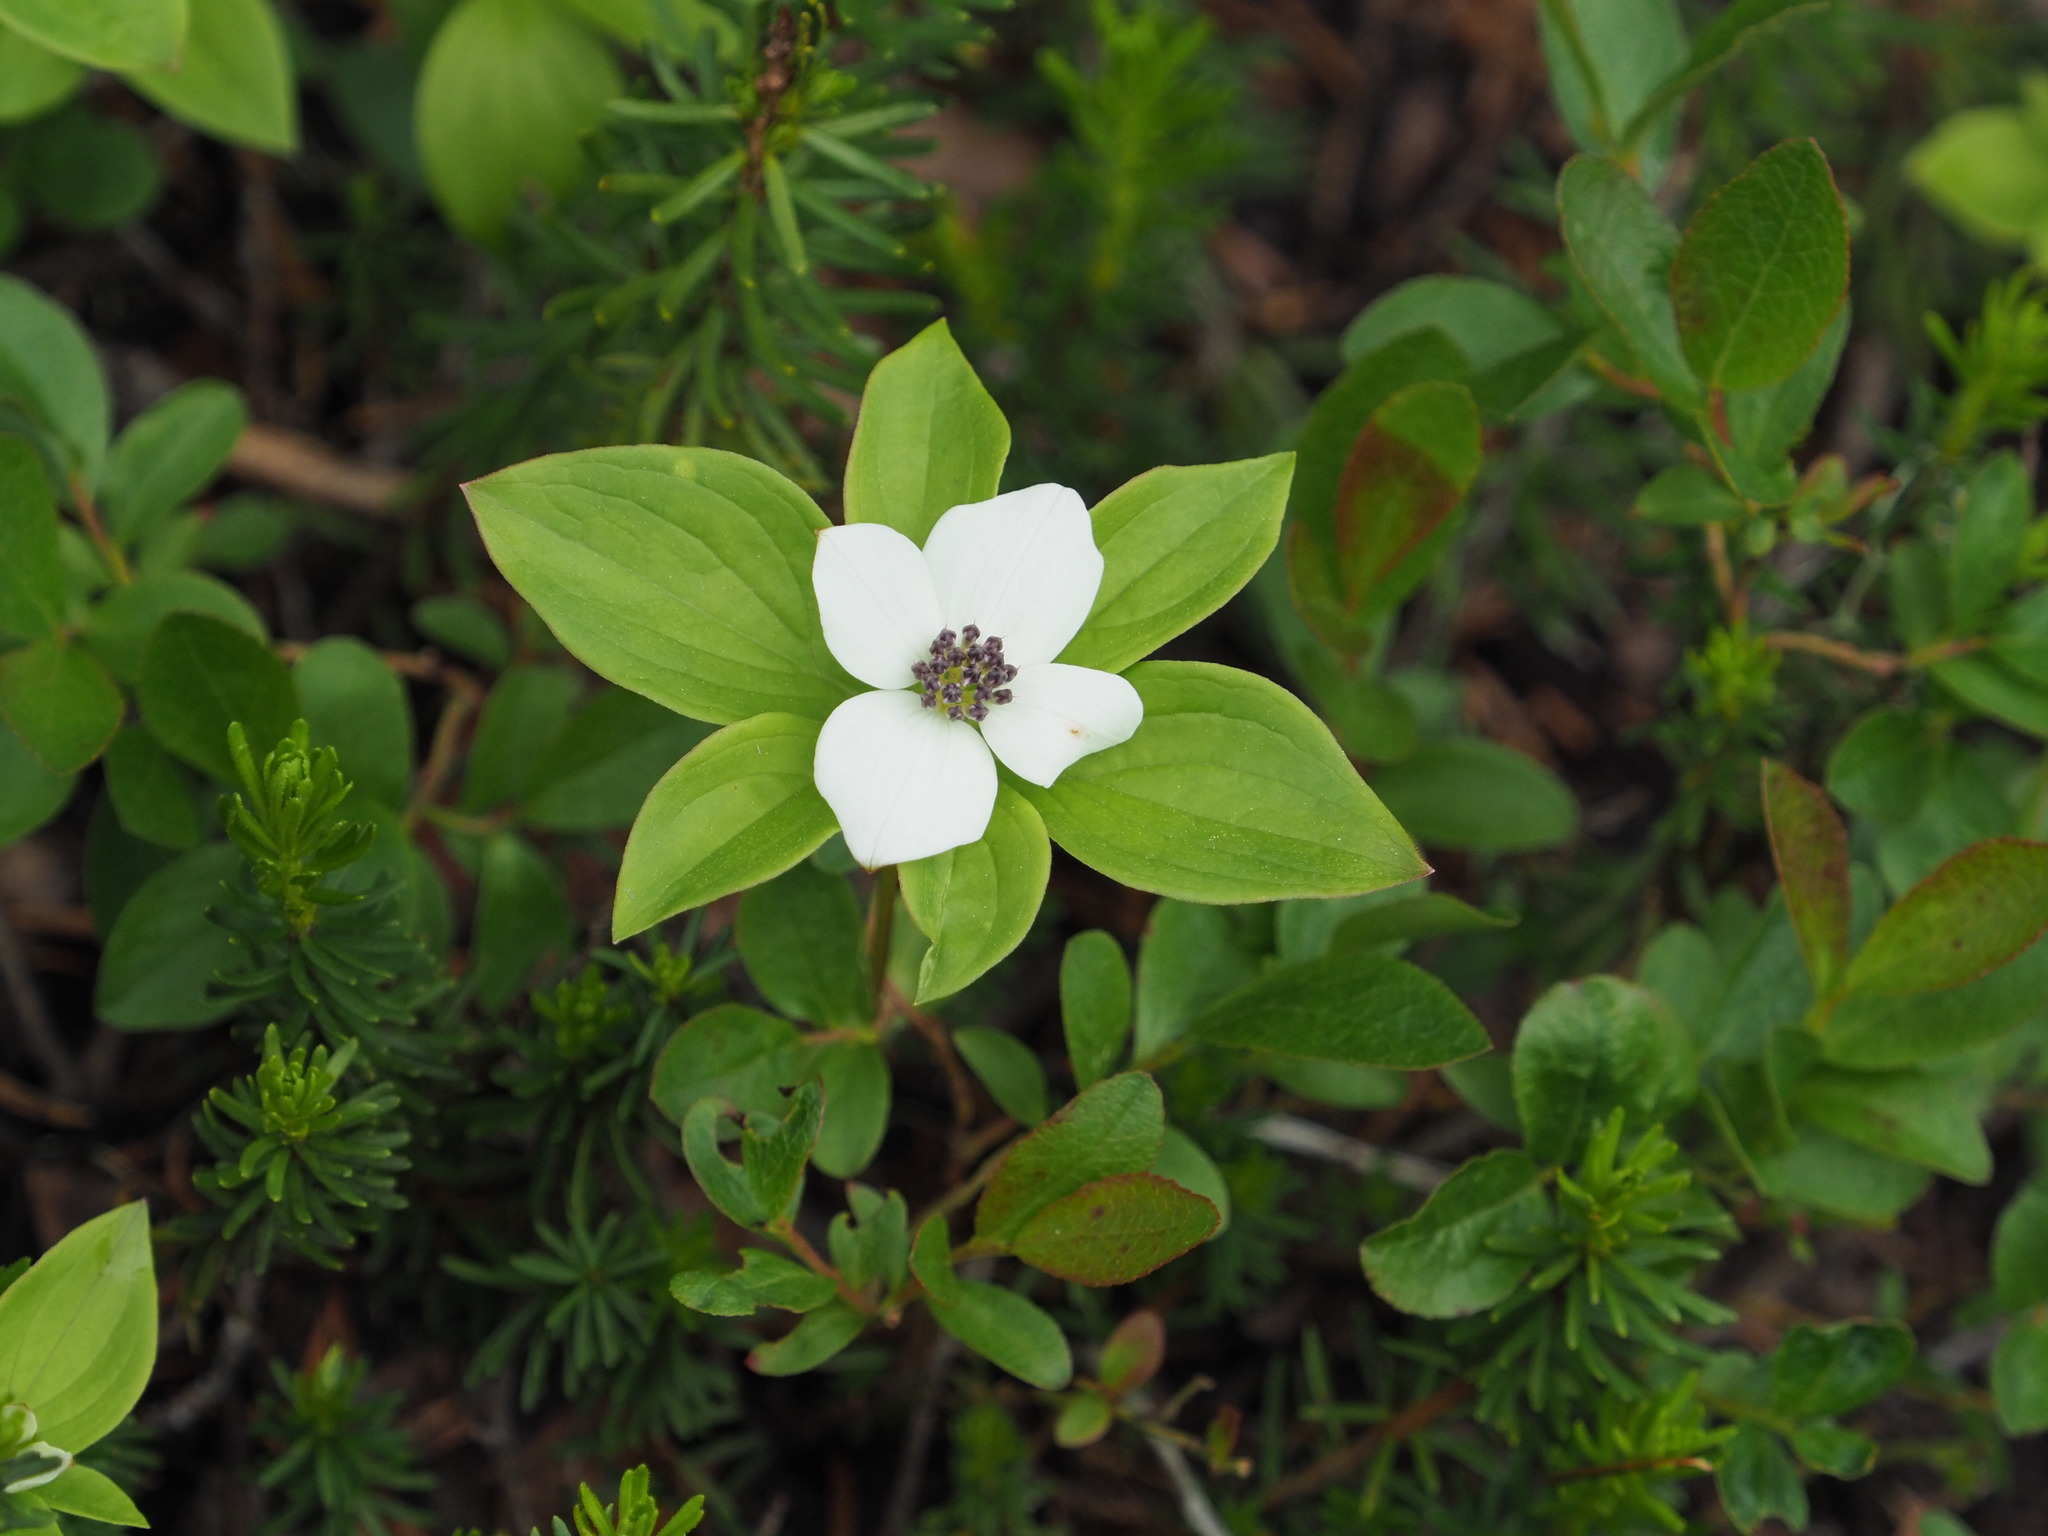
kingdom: Plantae
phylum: Tracheophyta
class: Magnoliopsida
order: Cornales
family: Cornaceae
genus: Cornus
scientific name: Cornus unalaschkensis
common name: Alaska bunchberry
